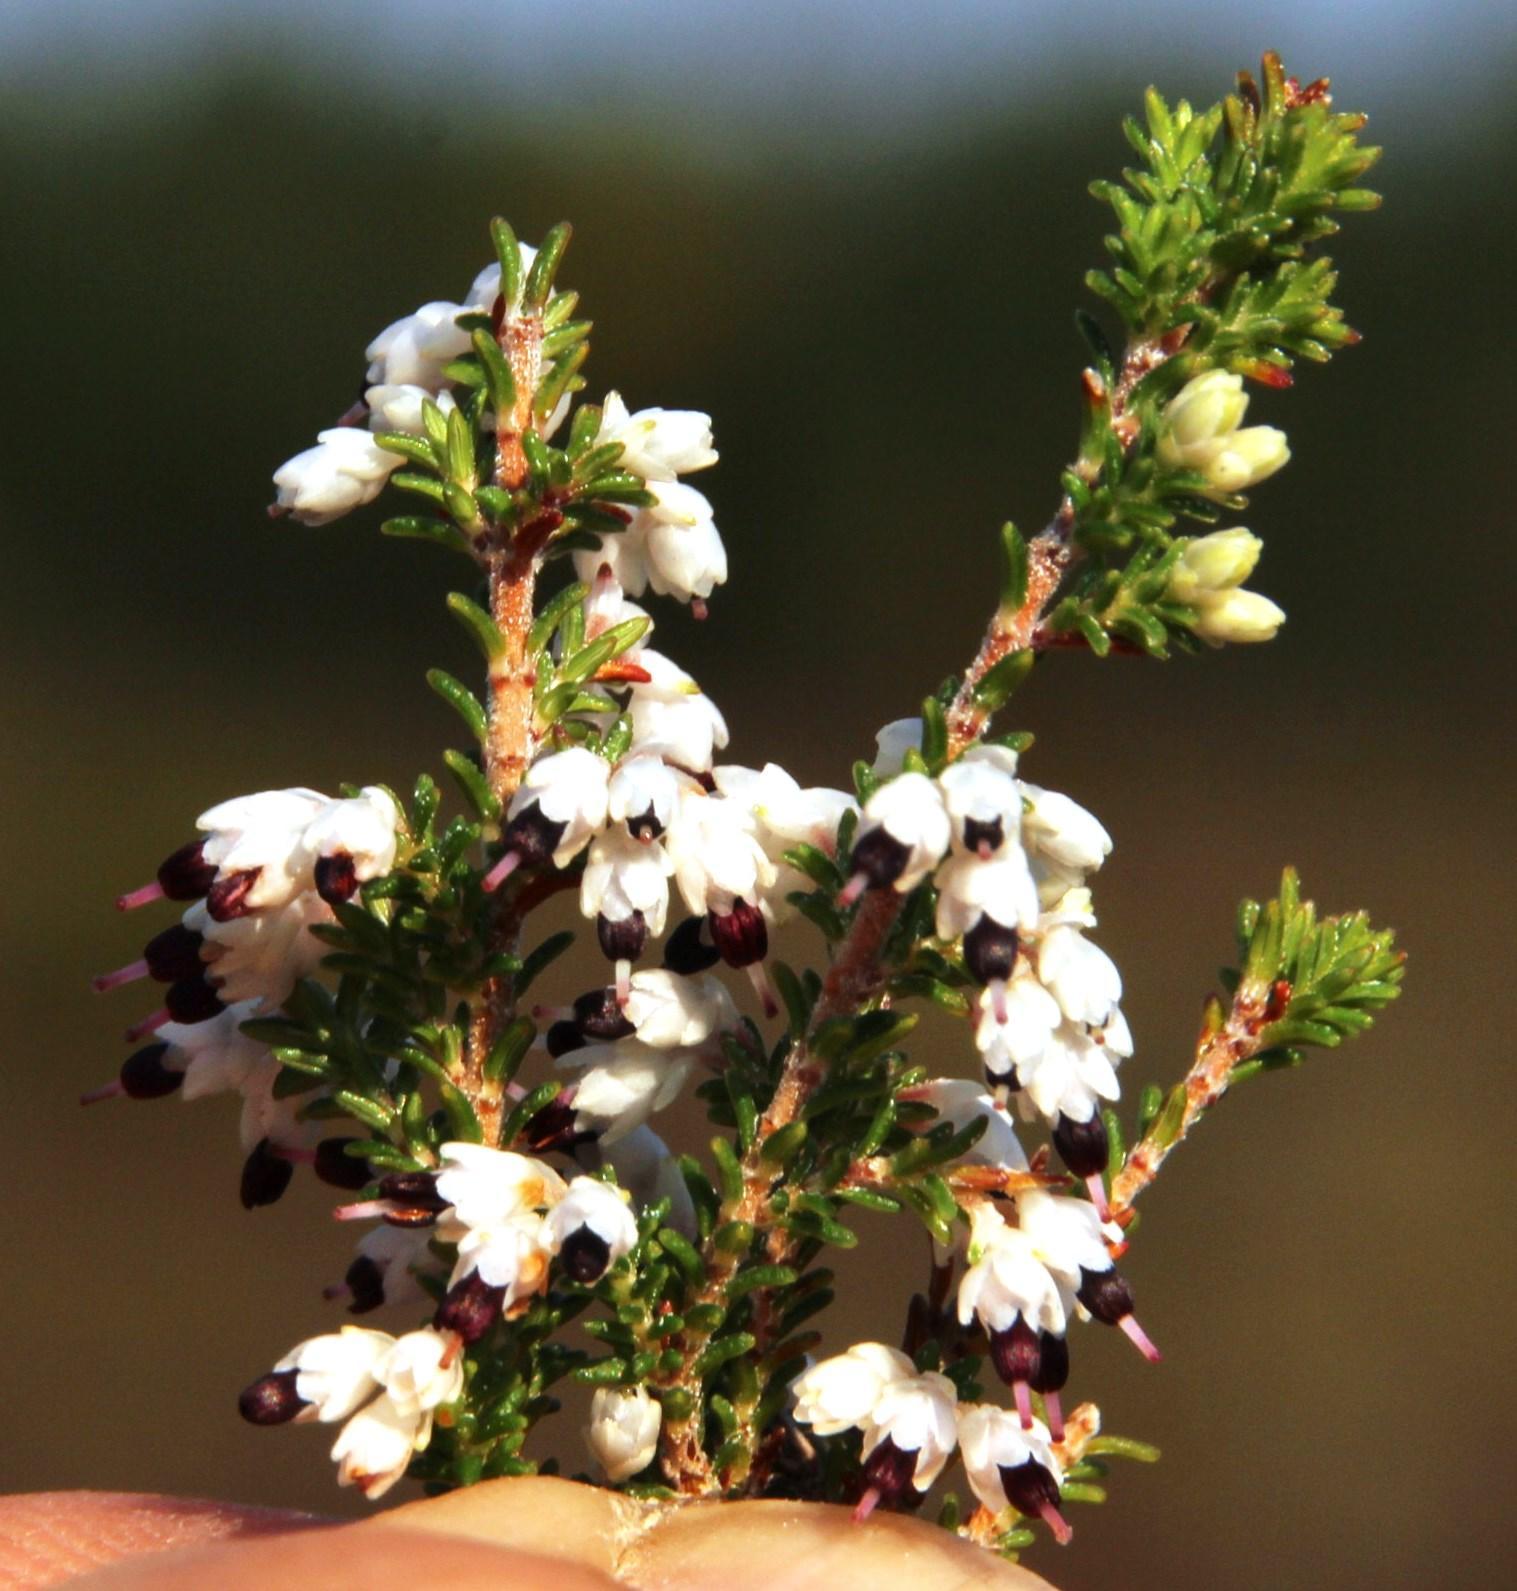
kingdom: Plantae
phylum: Tracheophyta
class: Magnoliopsida
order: Ericales
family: Ericaceae
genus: Erica
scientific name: Erica imbricata
